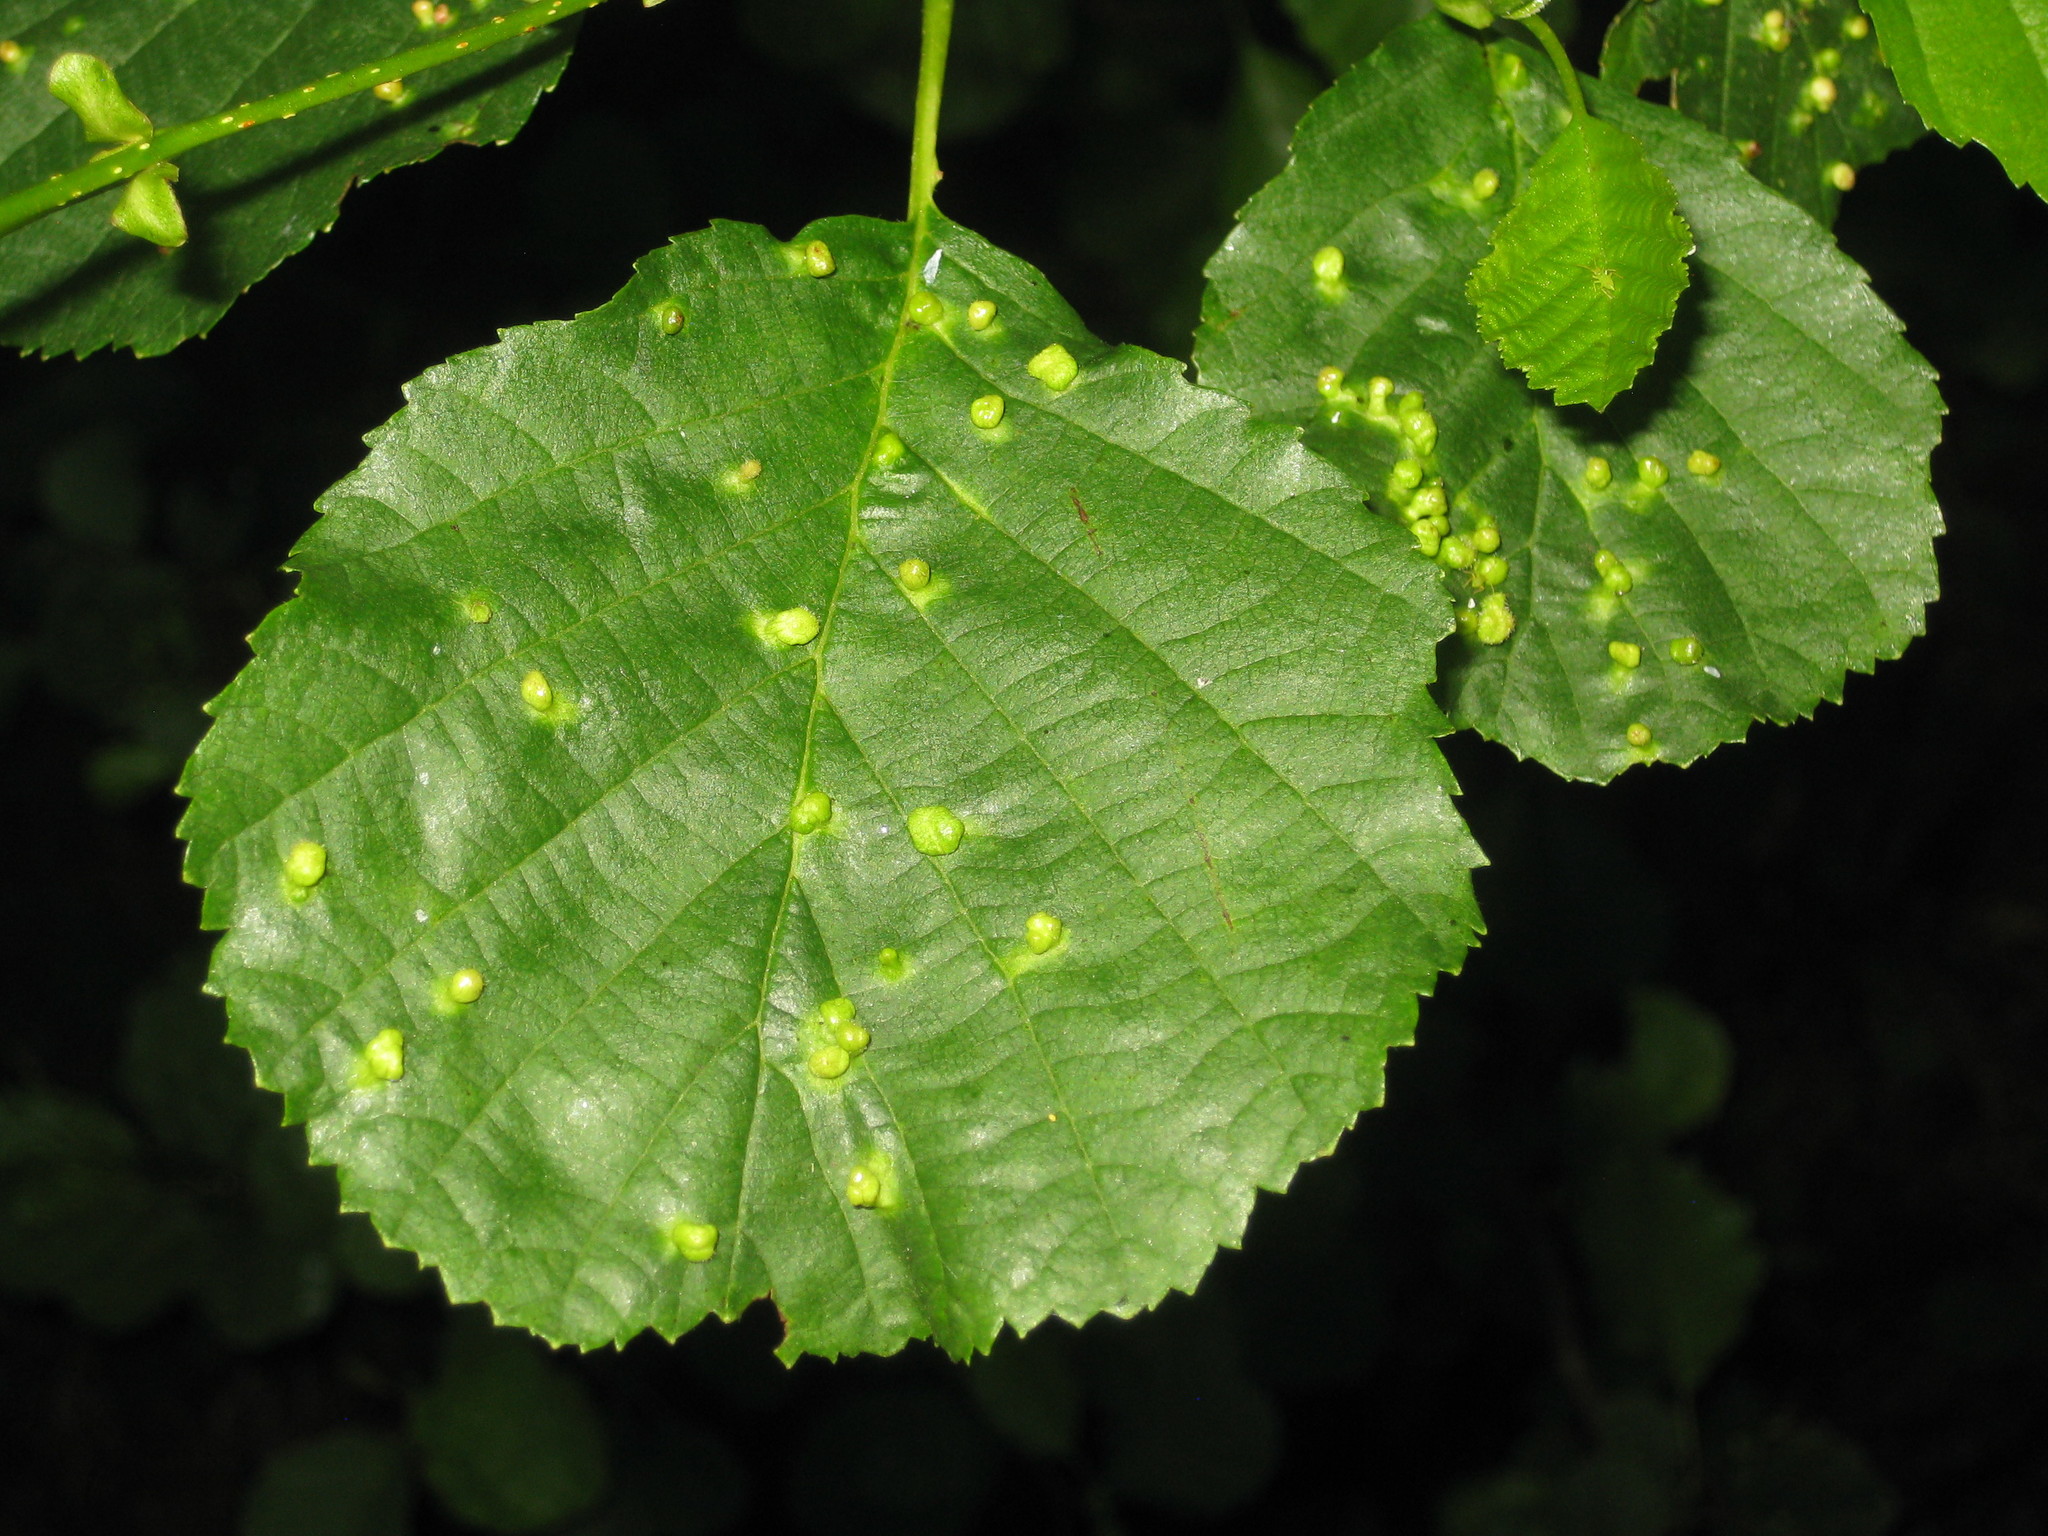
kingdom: Animalia
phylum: Arthropoda
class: Arachnida
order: Trombidiformes
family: Eriophyidae
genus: Eriophyes
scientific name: Eriophyes laevis
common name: Alder leaf gall mite
